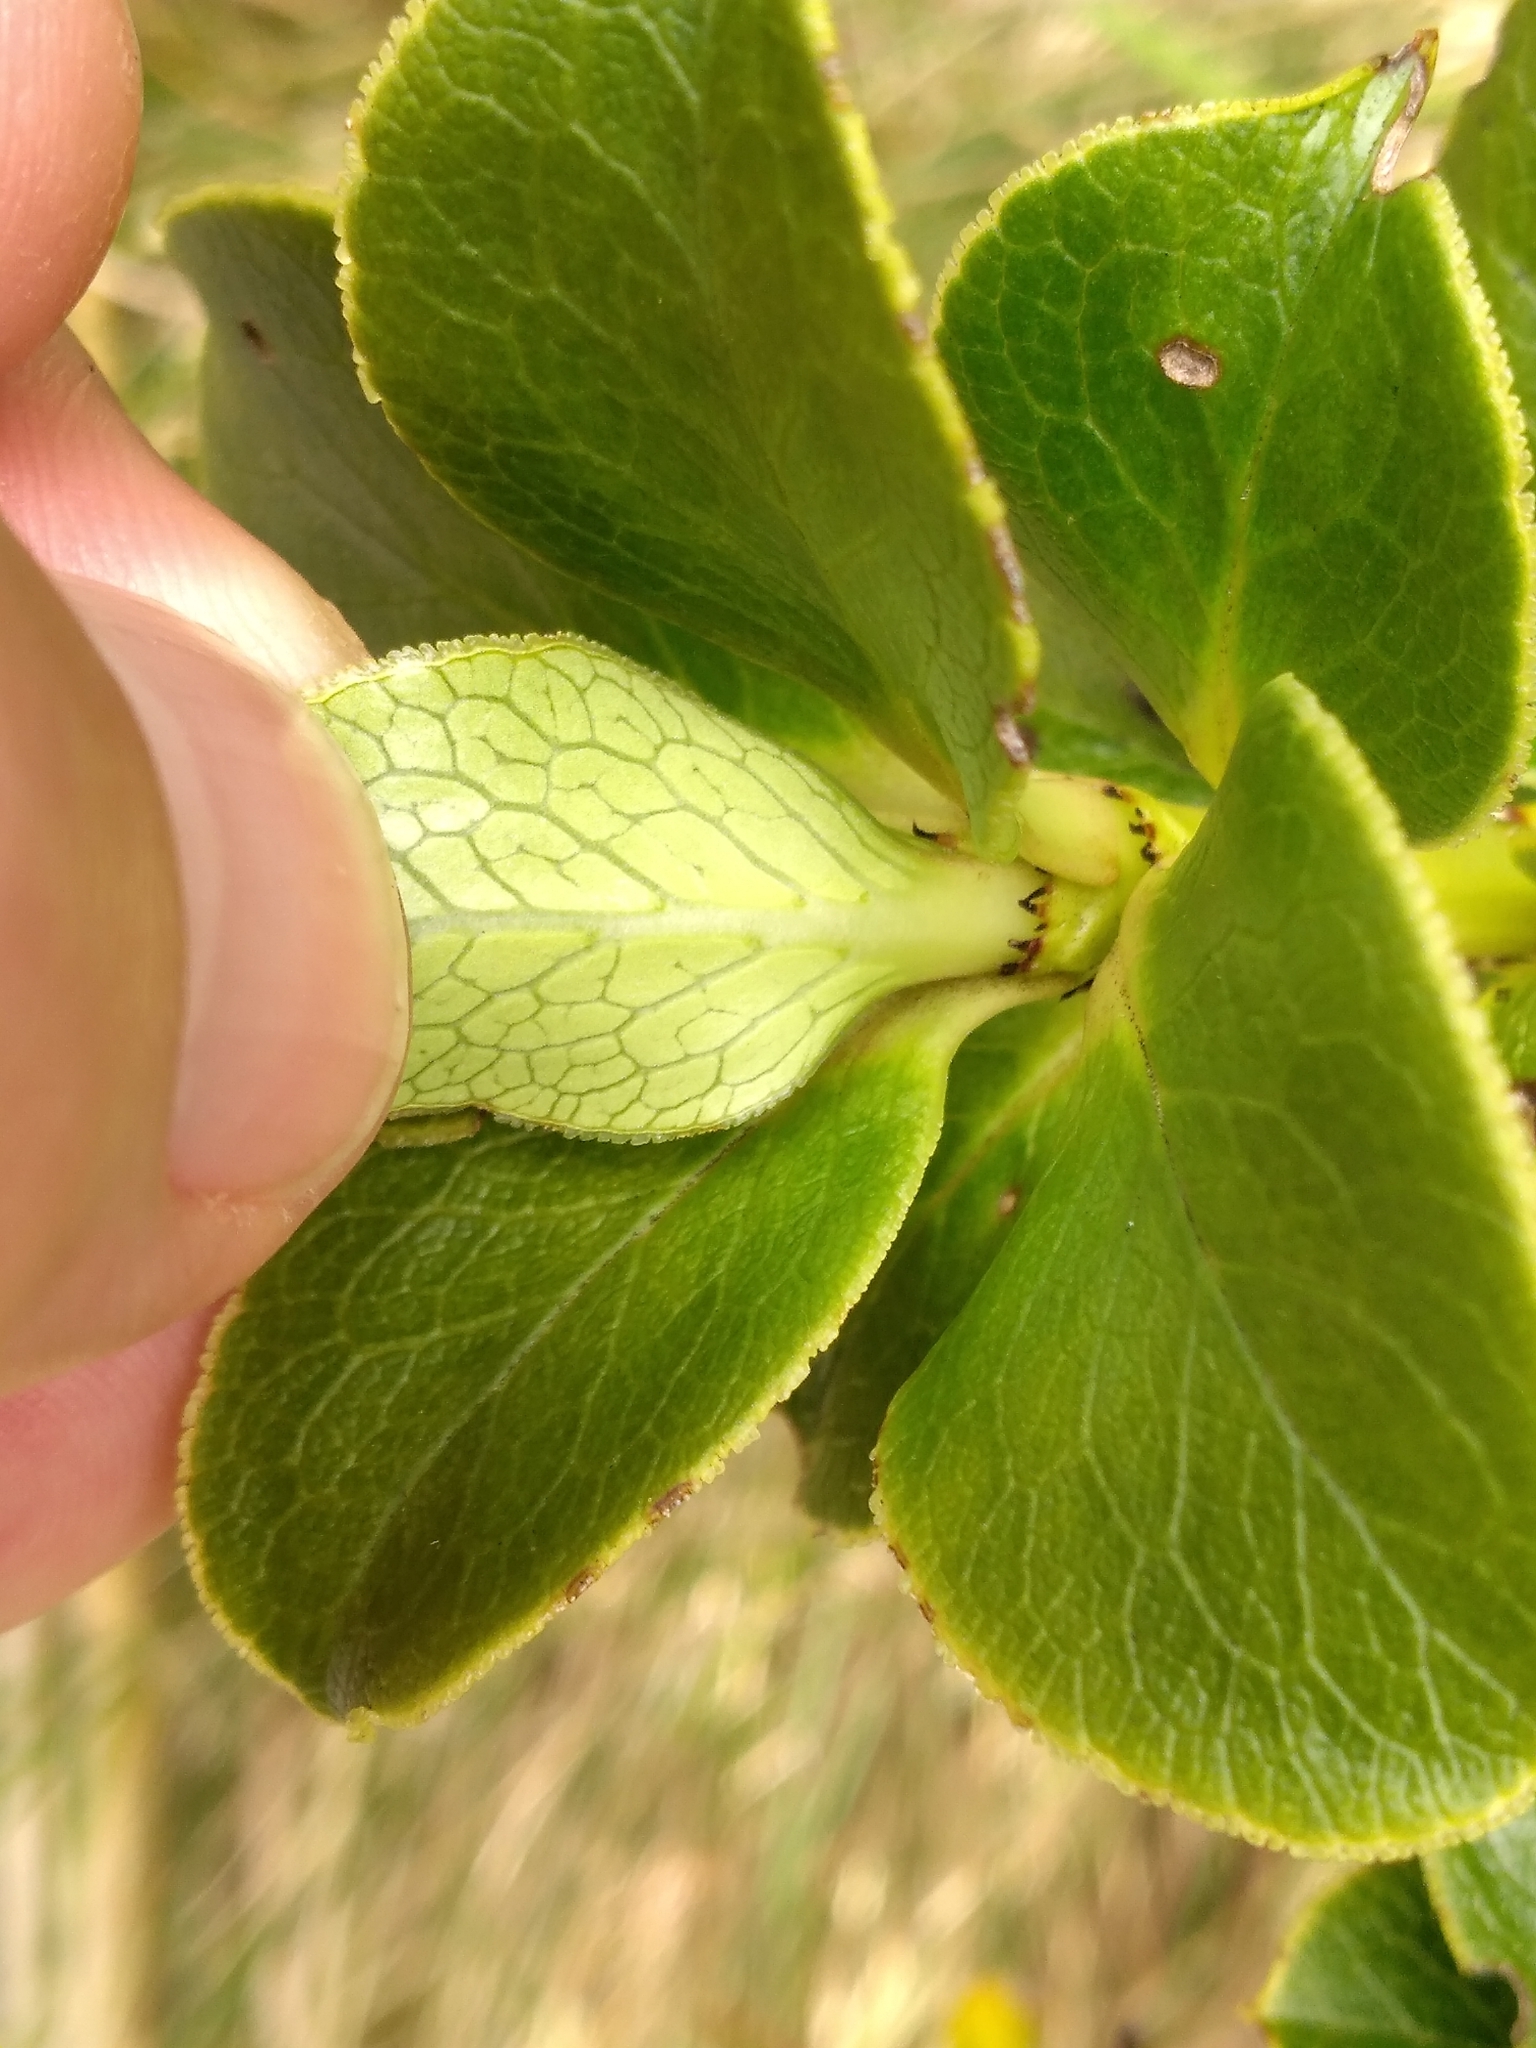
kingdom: Plantae
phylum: Tracheophyta
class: Magnoliopsida
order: Gentianales
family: Rubiaceae
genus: Coprosma
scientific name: Coprosma serrulata
